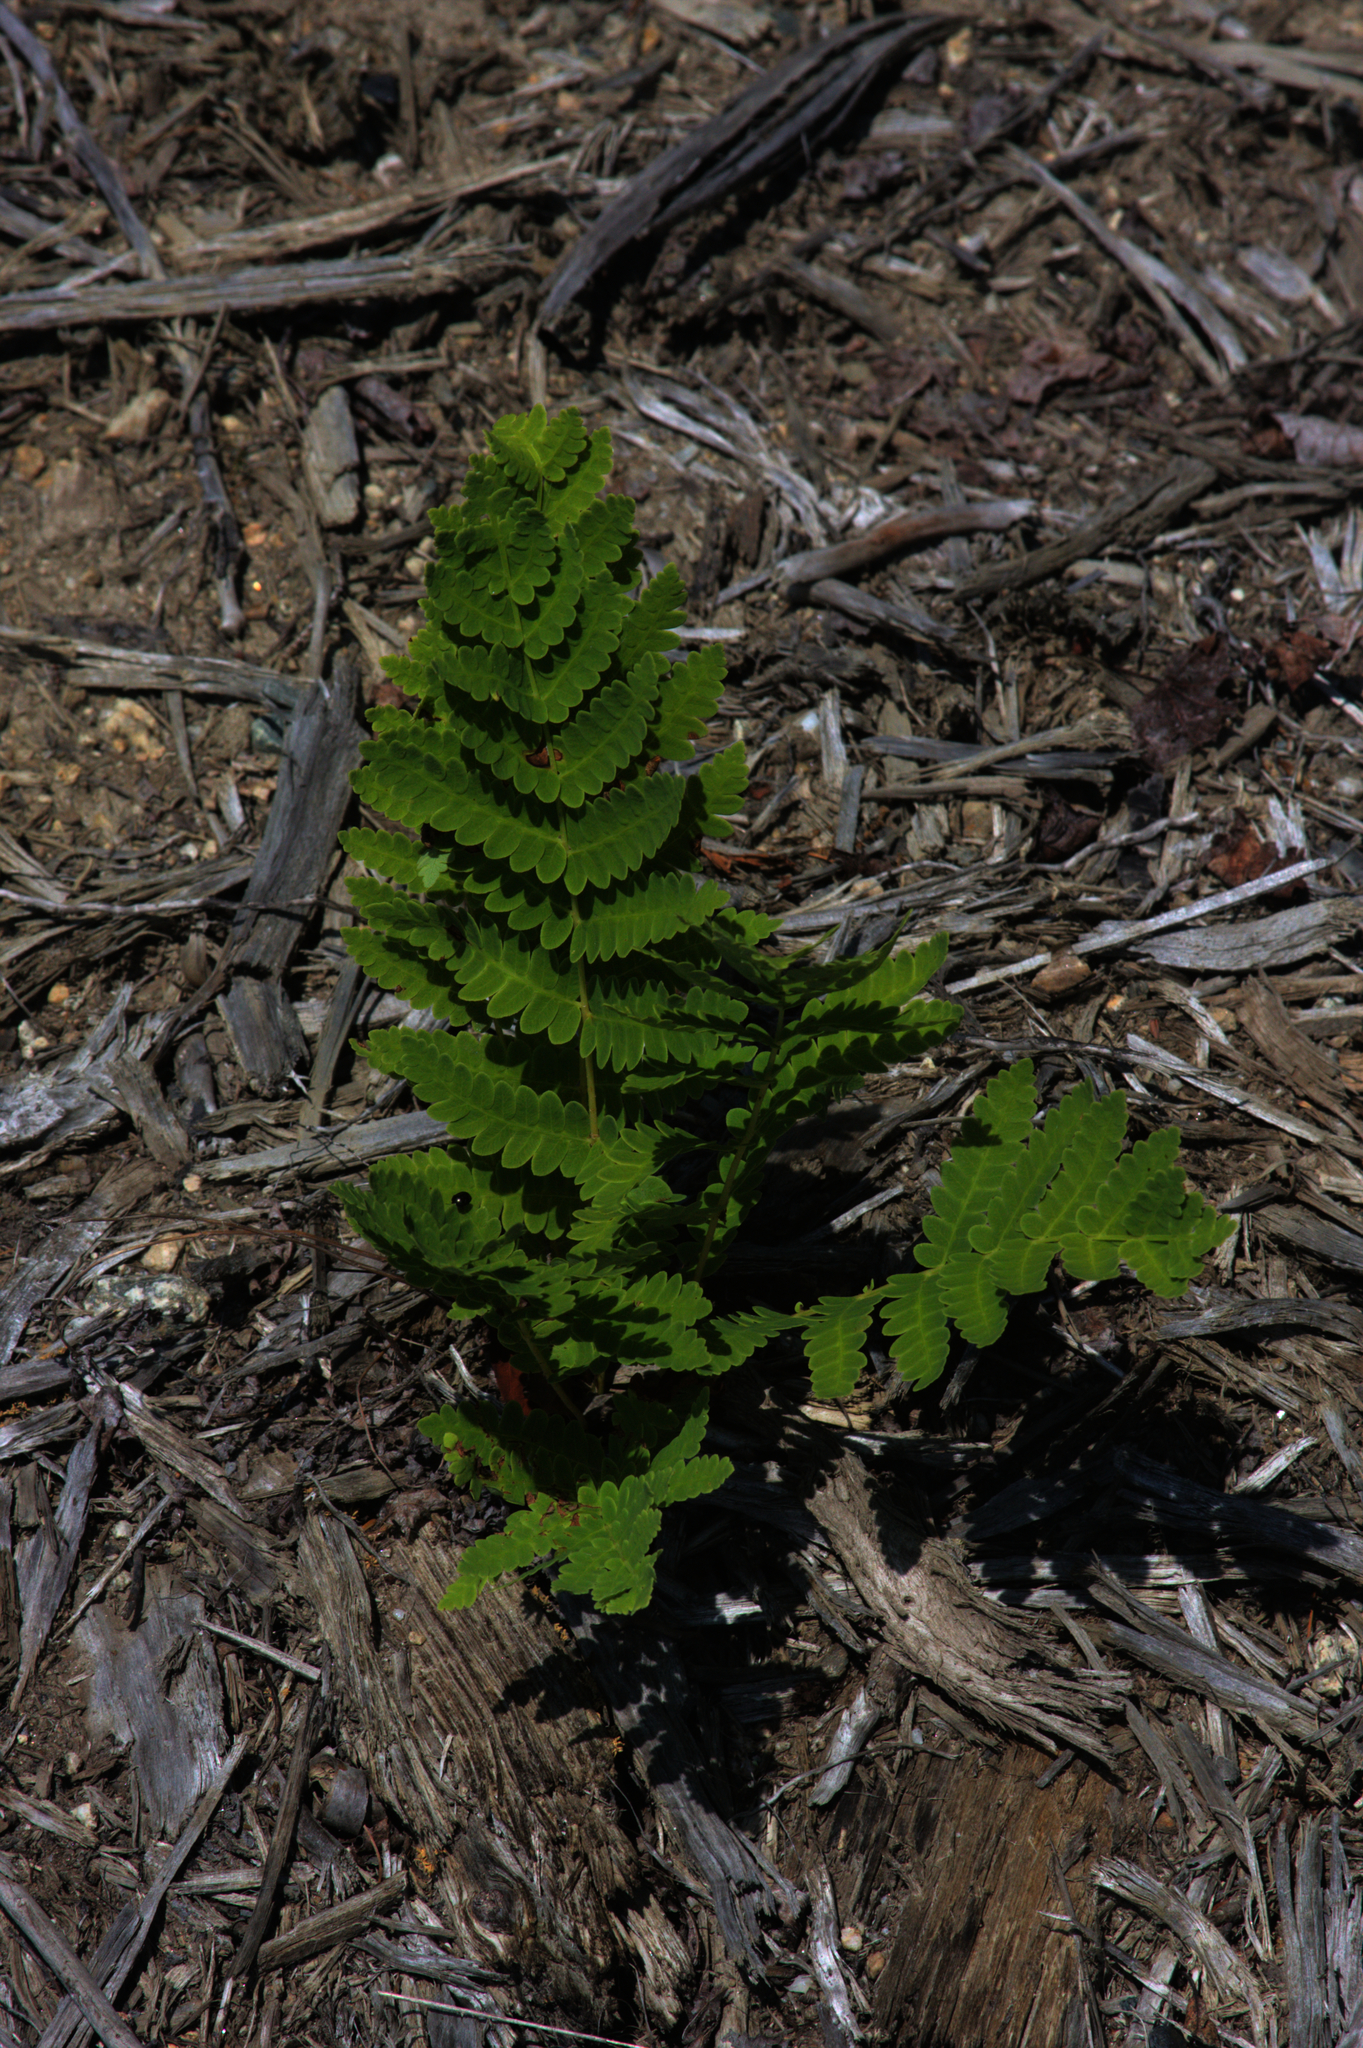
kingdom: Plantae
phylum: Tracheophyta
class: Polypodiopsida
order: Osmundales
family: Osmundaceae
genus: Claytosmunda
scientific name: Claytosmunda claytoniana
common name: Clayton's fern
